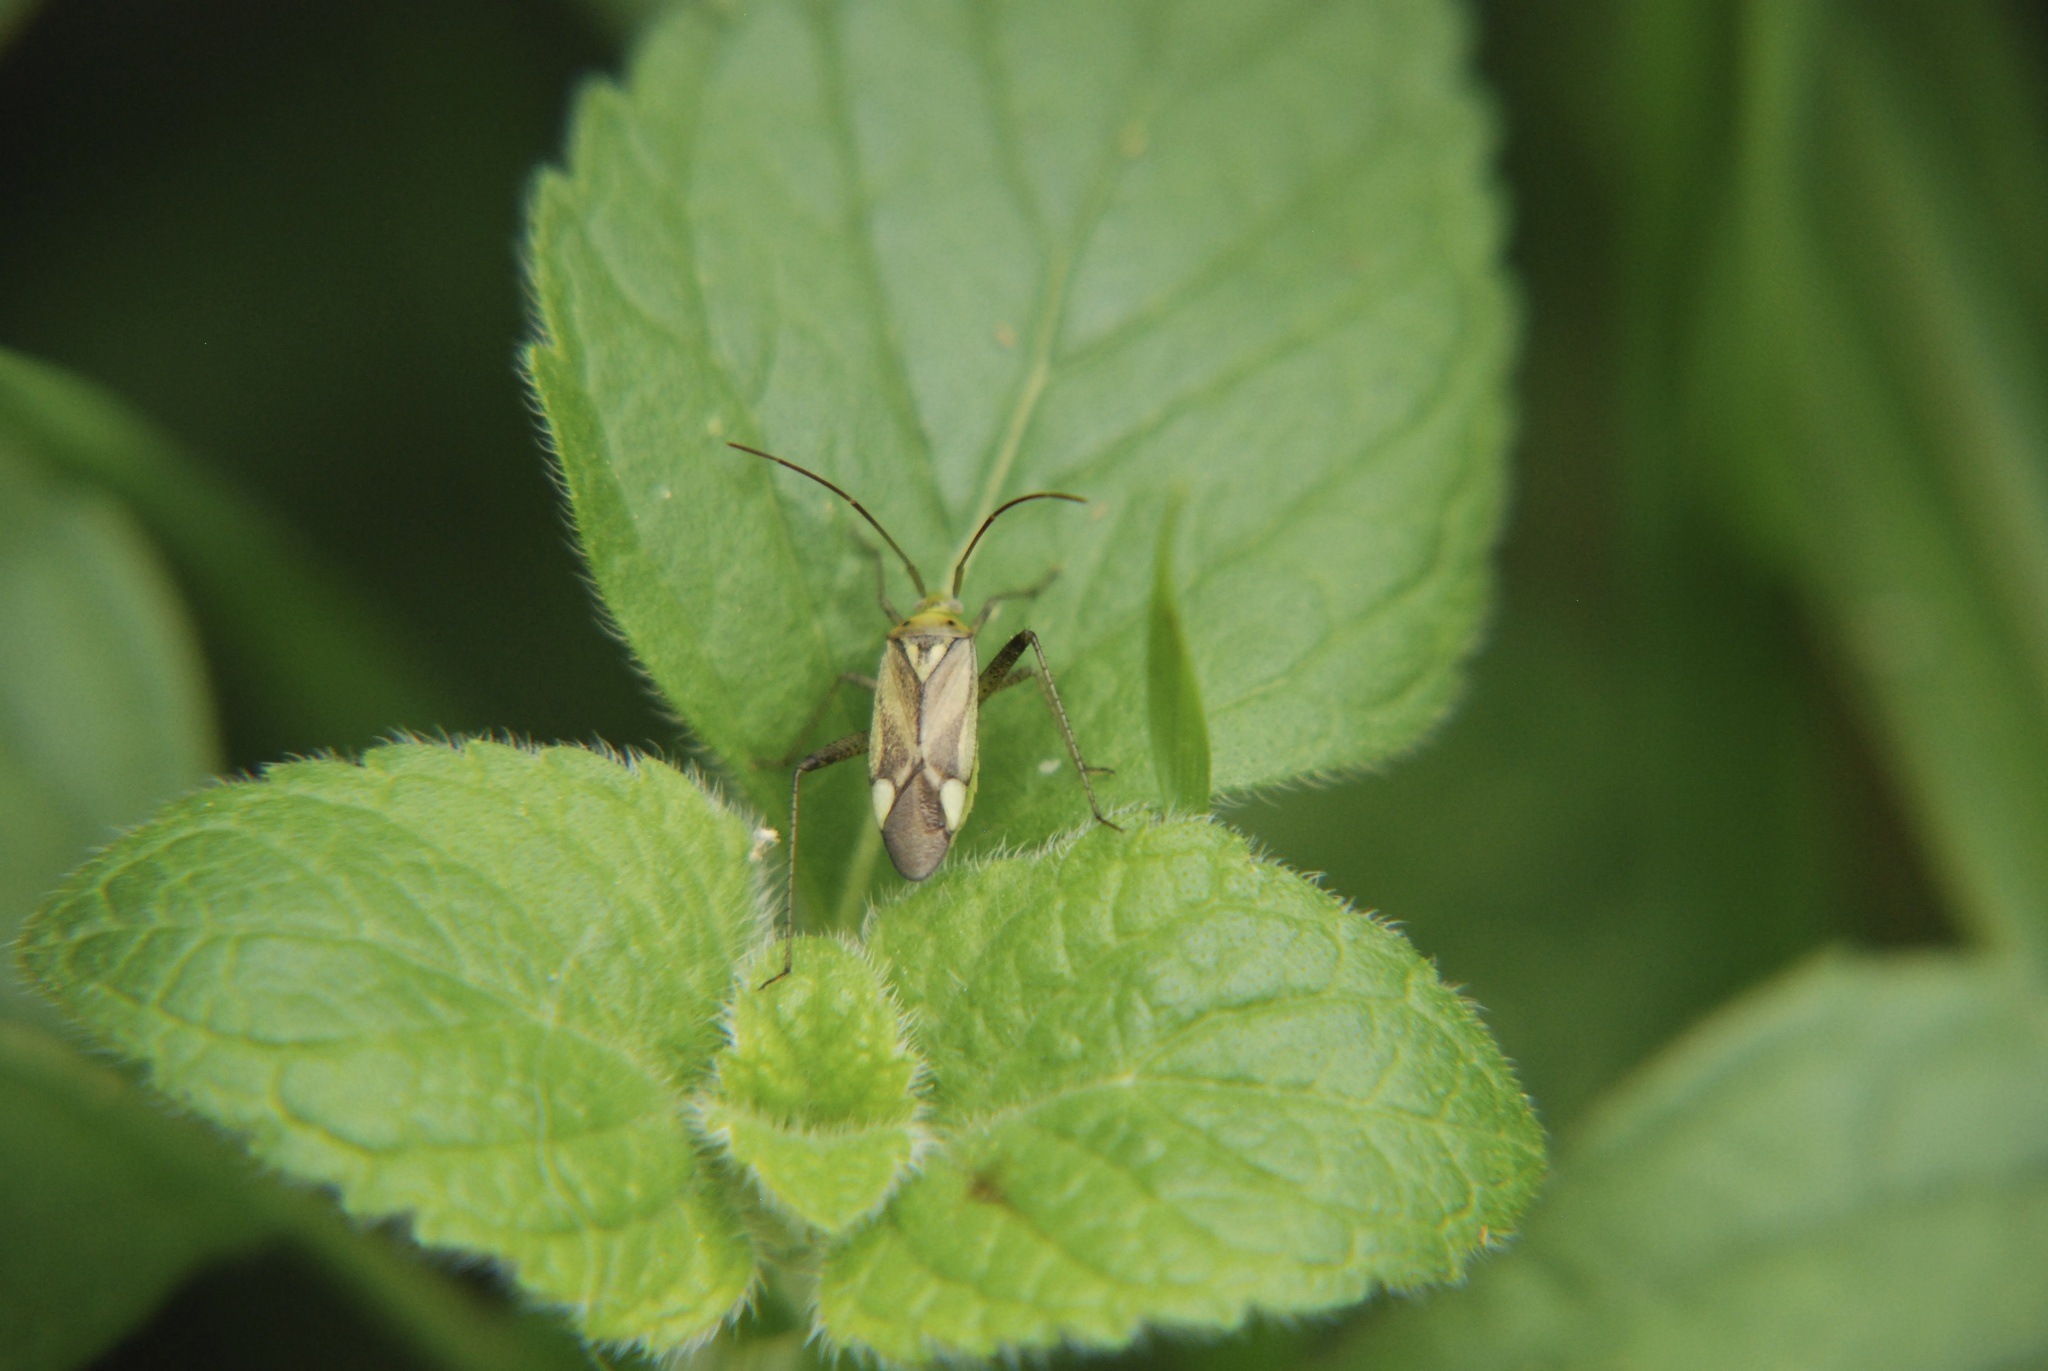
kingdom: Animalia
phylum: Arthropoda
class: Insecta
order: Hemiptera
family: Miridae
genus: Adelphocoris
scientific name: Adelphocoris lineolatus
